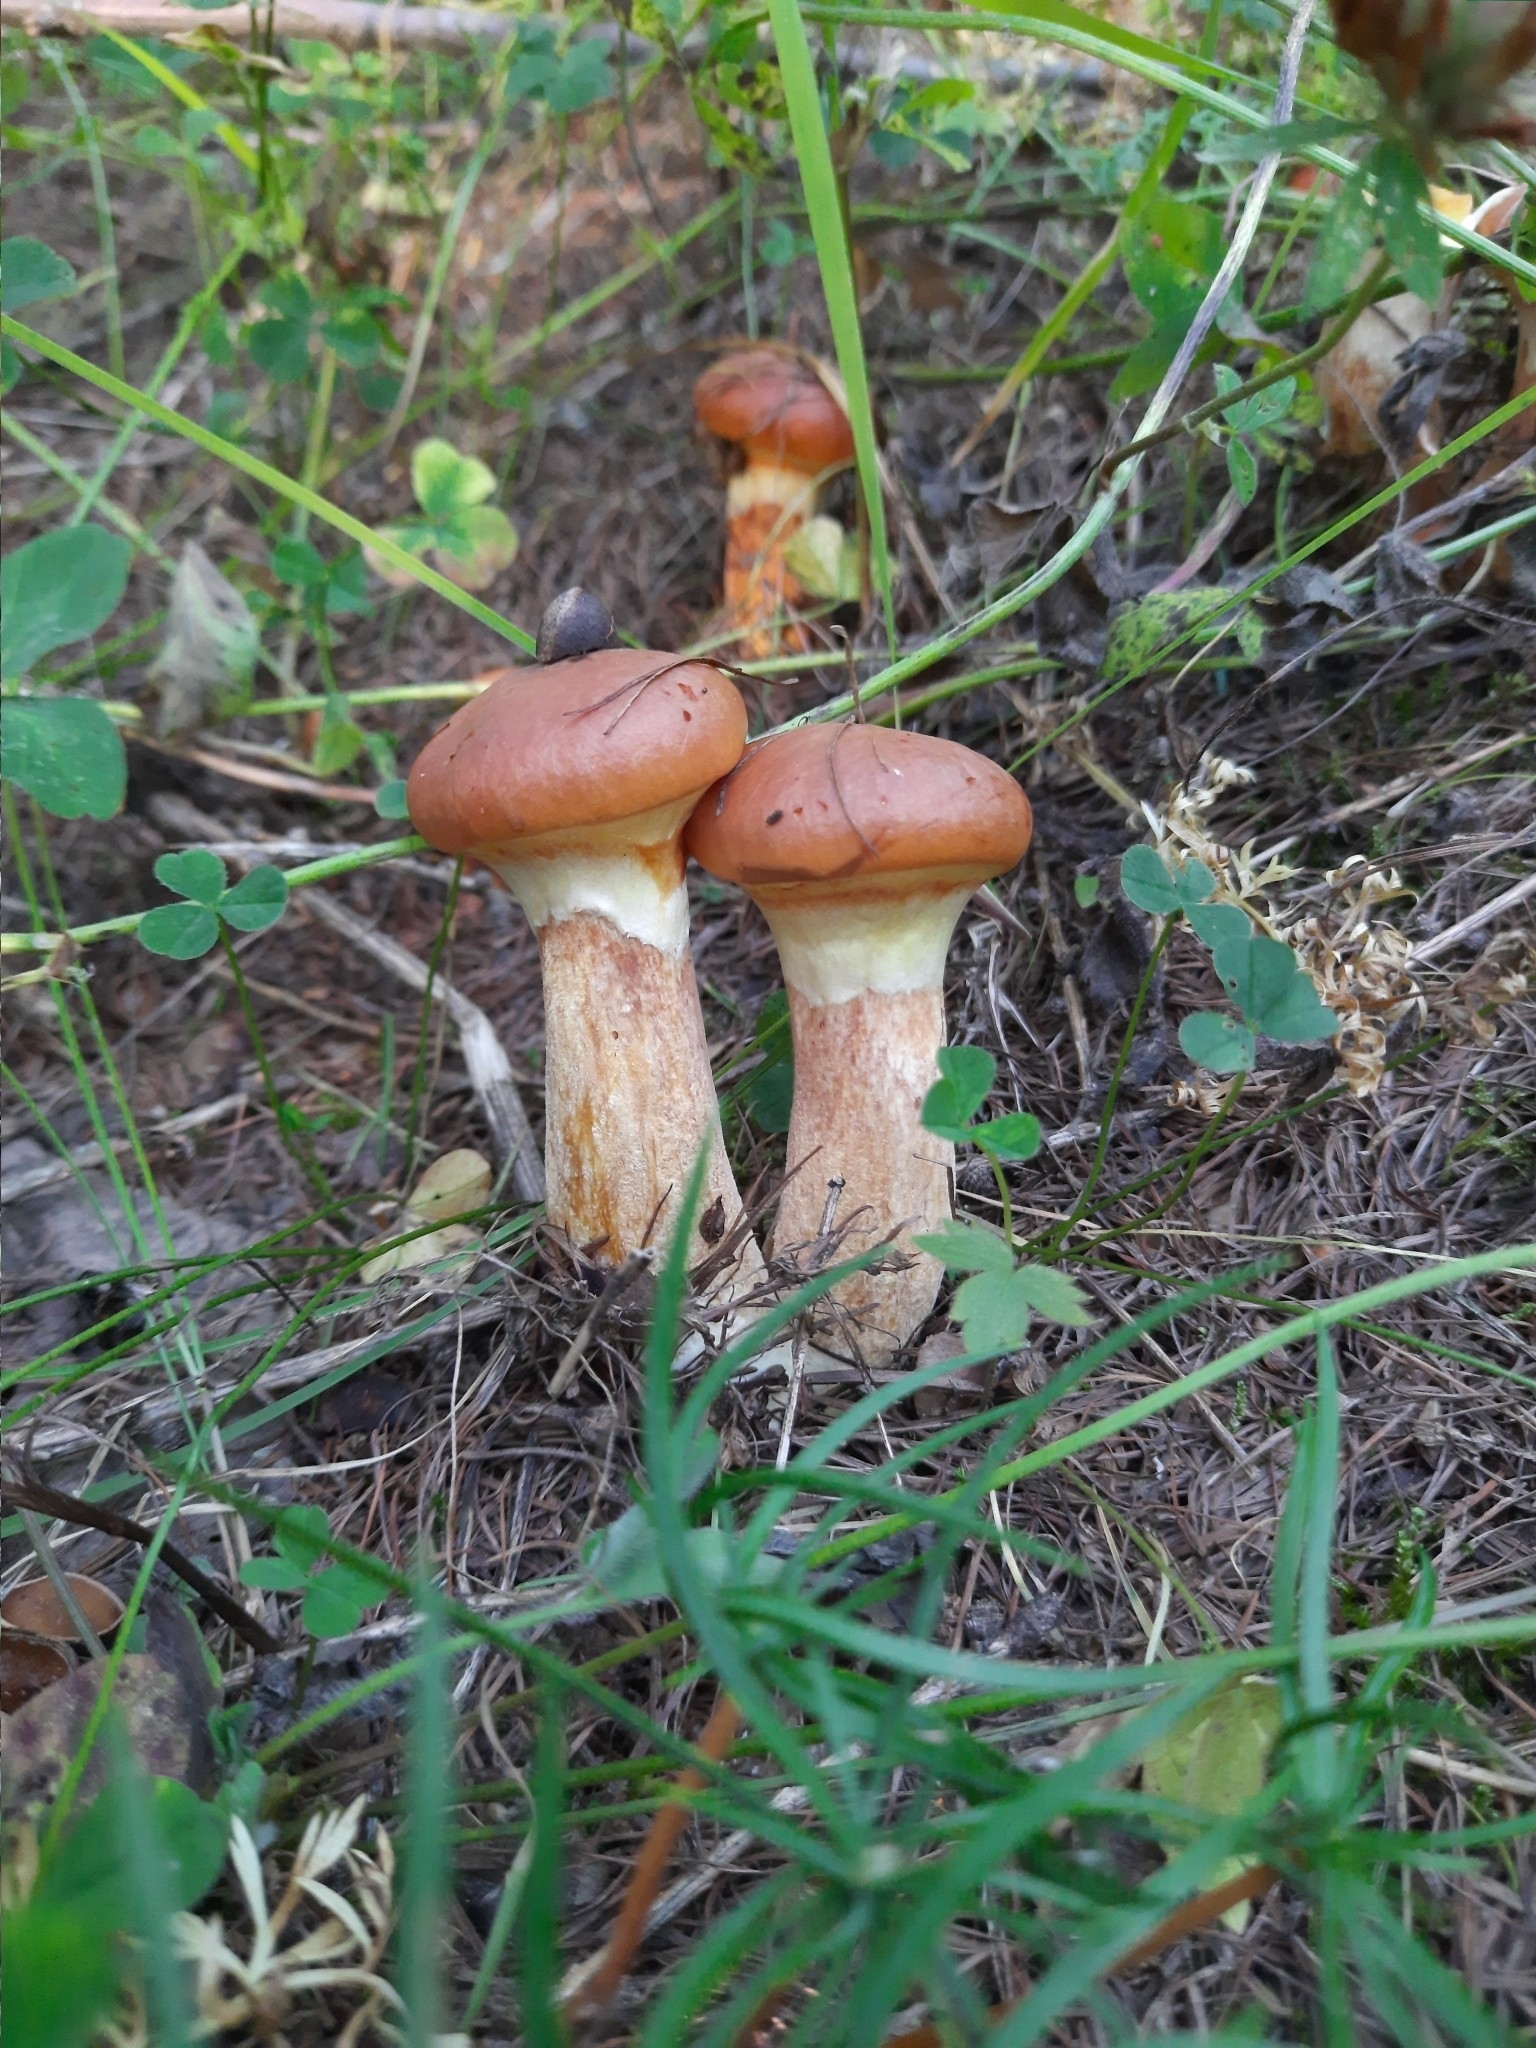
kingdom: Fungi
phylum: Basidiomycota
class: Agaricomycetes
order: Boletales
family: Suillaceae
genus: Suillus
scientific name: Suillus grevillei
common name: Larch bolete
